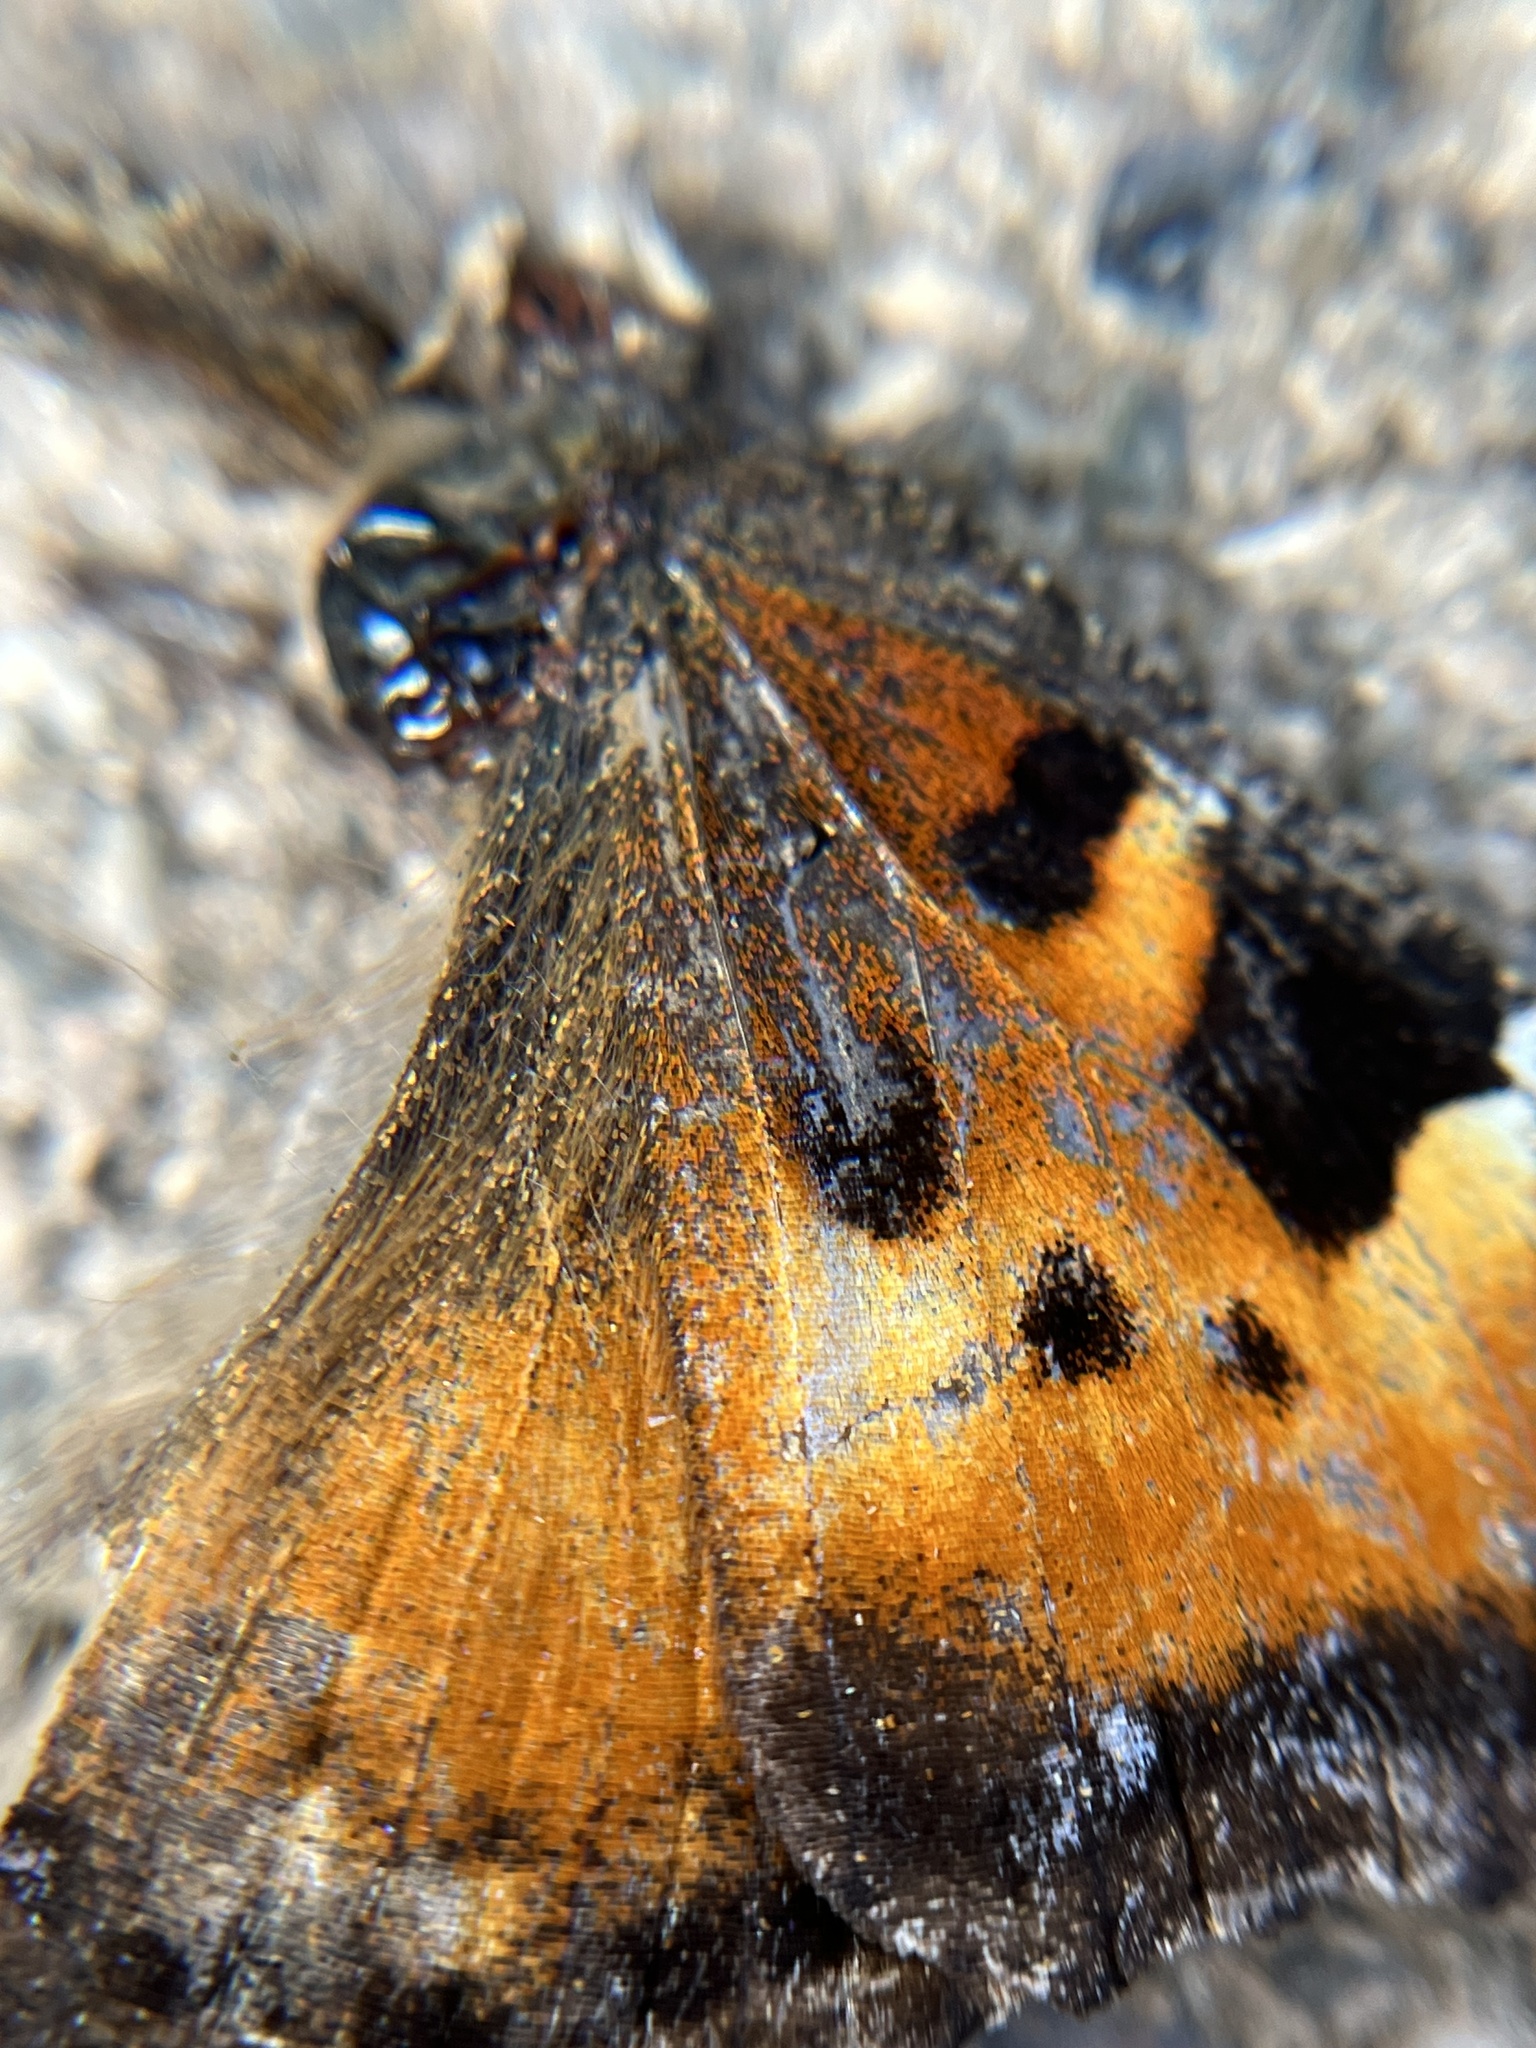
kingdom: Animalia
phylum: Arthropoda
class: Insecta
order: Lepidoptera
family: Nymphalidae
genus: Nymphalis
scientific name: Nymphalis californica
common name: California tortoiseshell
